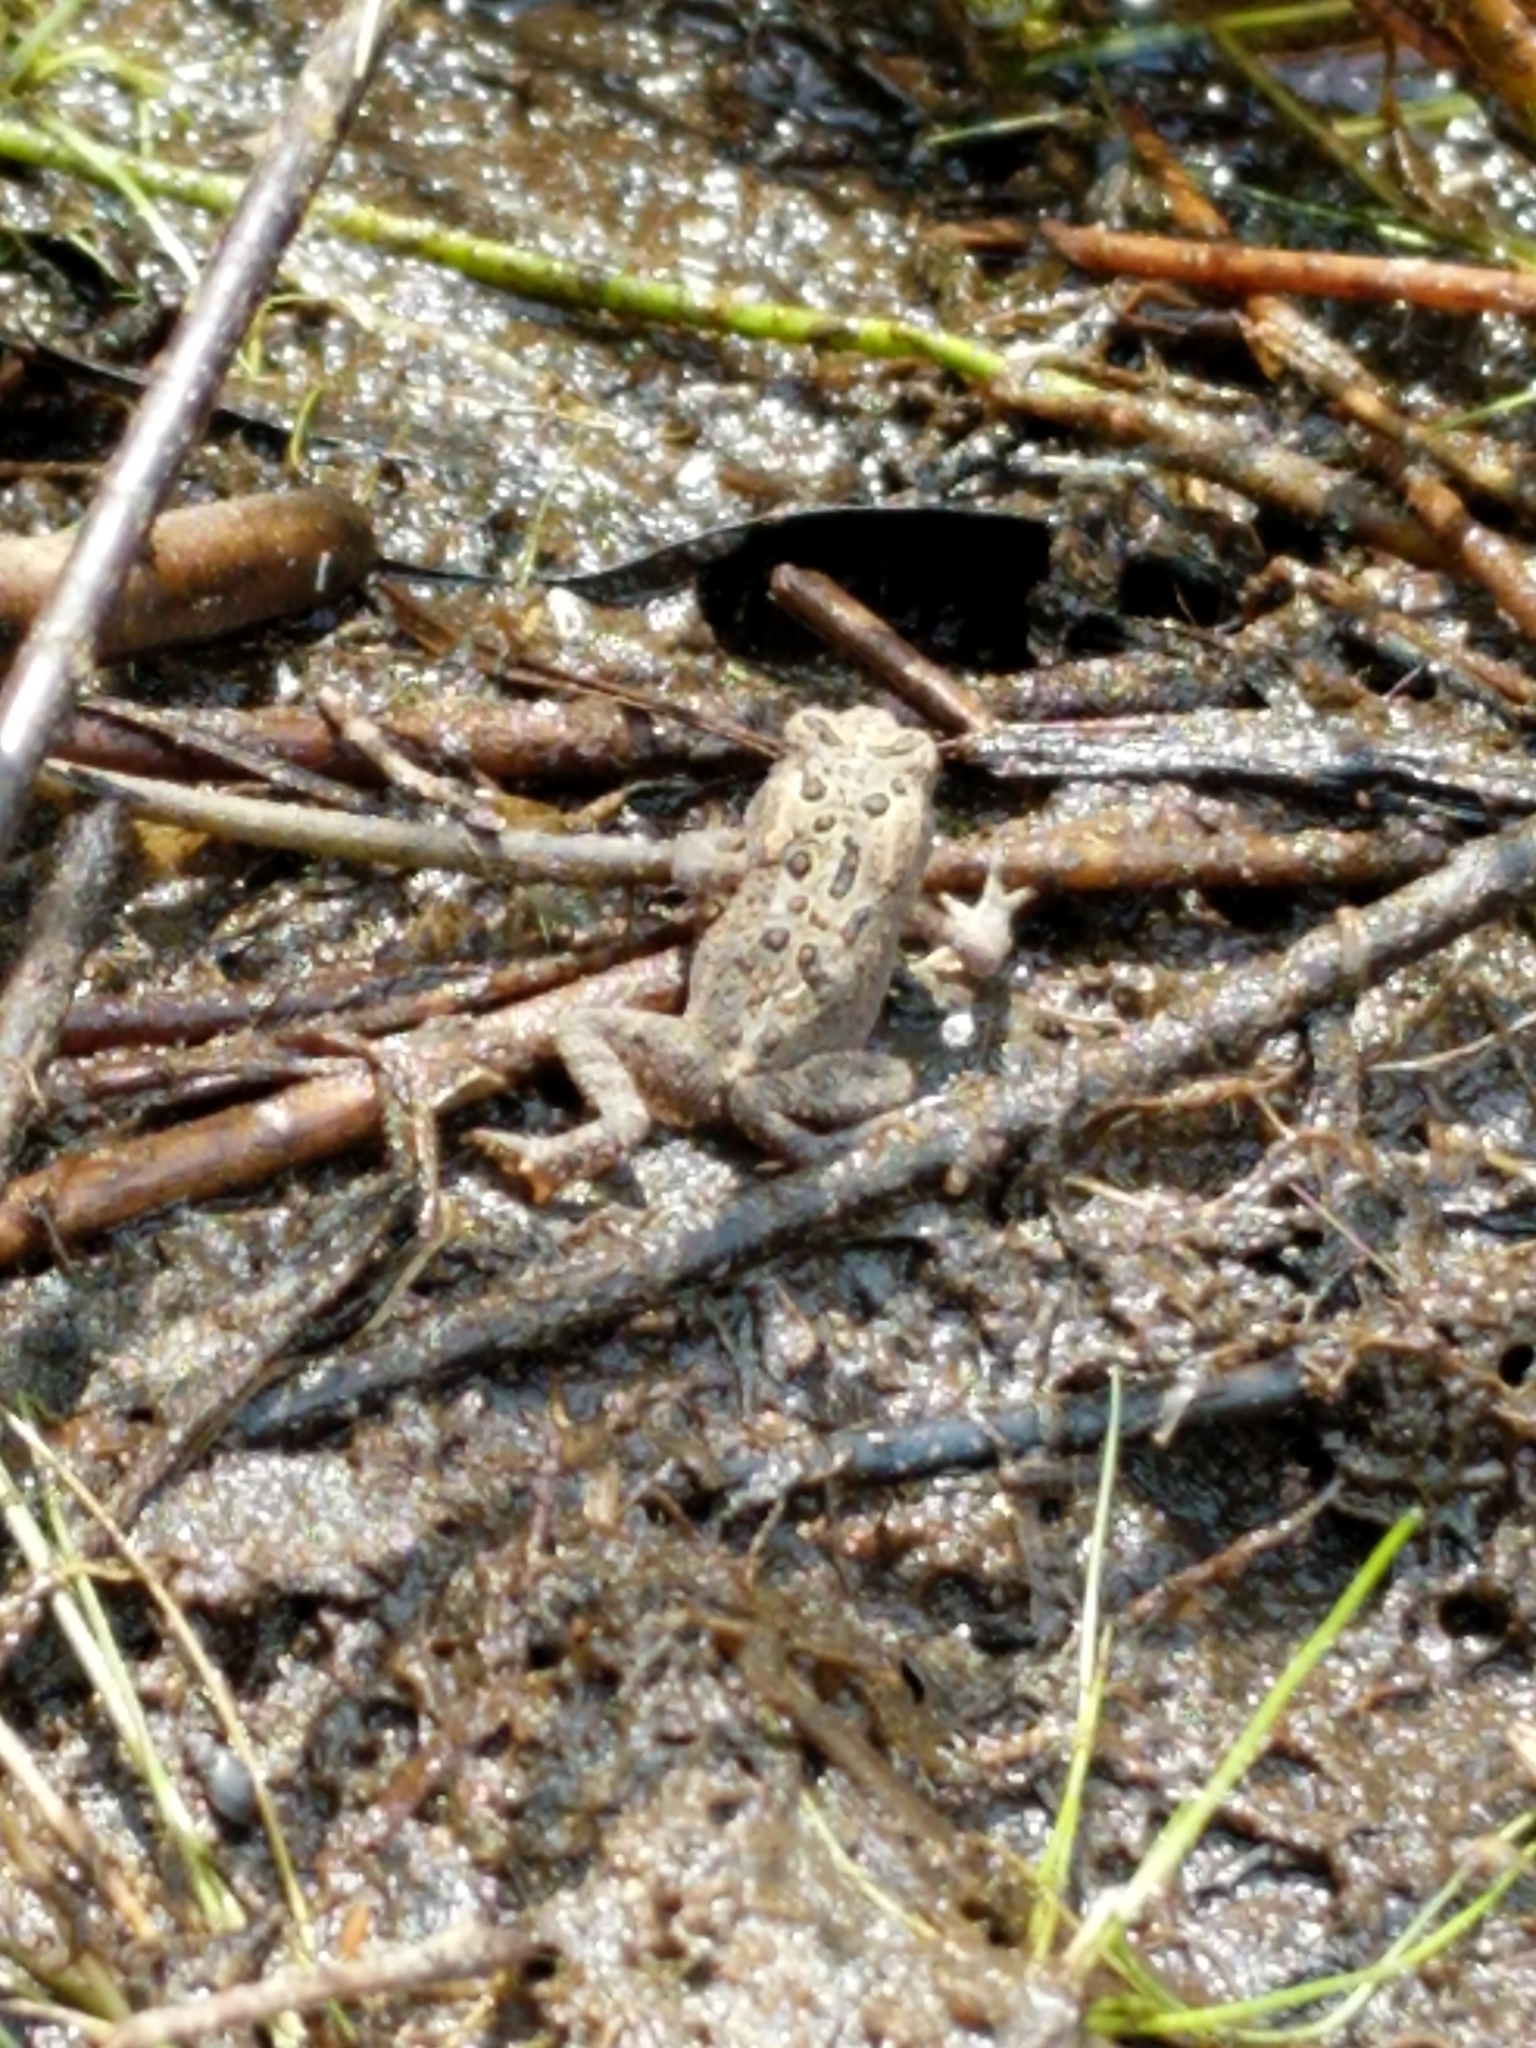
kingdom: Animalia
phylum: Chordata
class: Amphibia
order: Anura
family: Bufonidae
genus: Anaxyrus
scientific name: Anaxyrus americanus
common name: American toad
